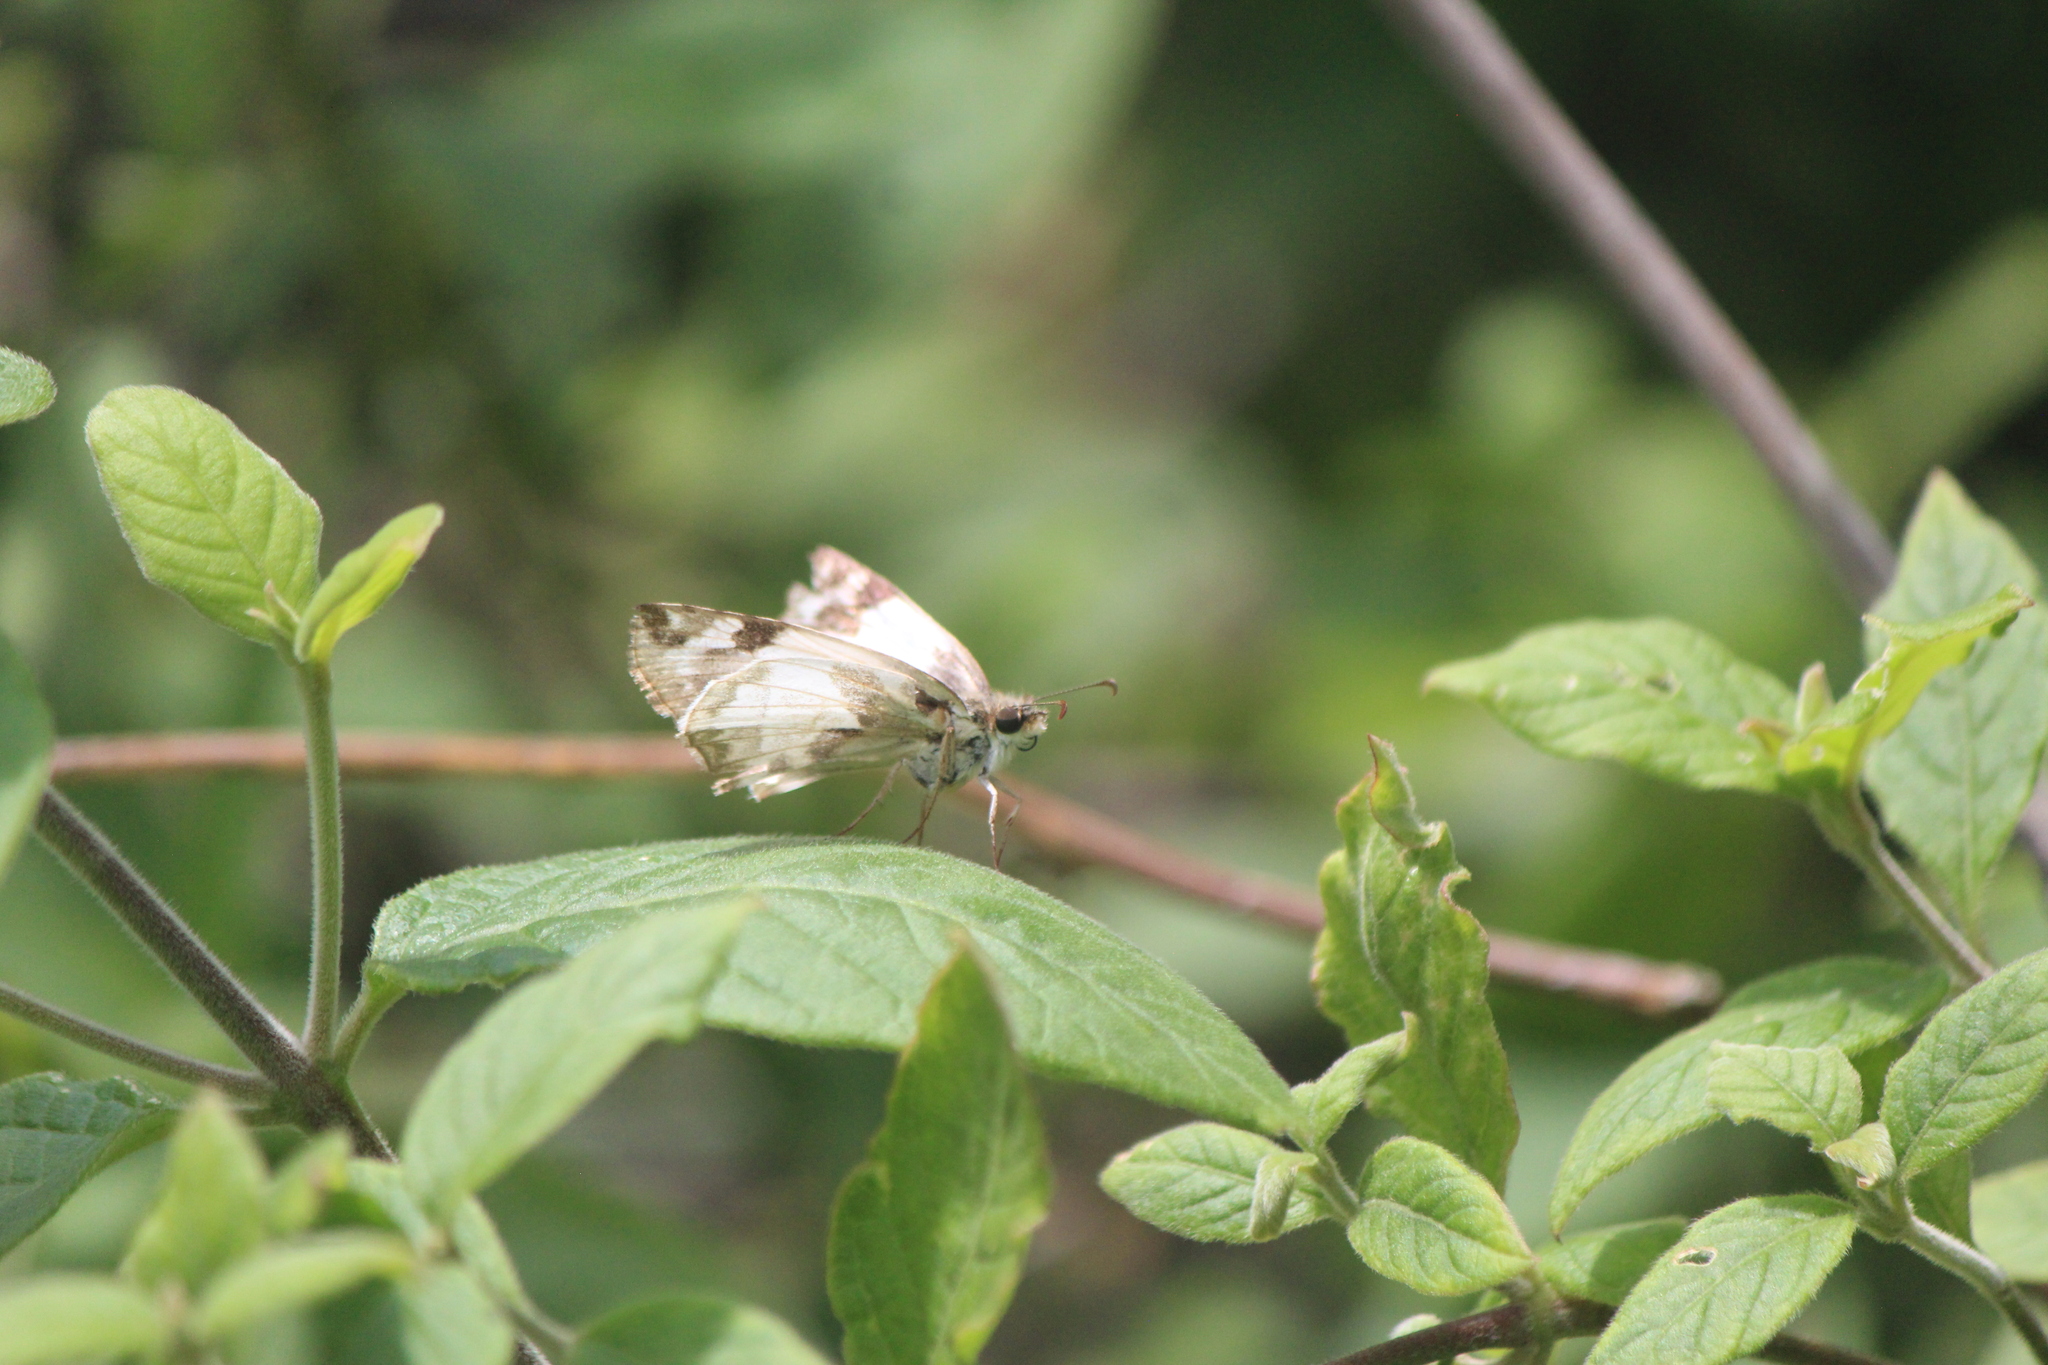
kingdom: Animalia
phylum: Arthropoda
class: Insecta
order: Lepidoptera
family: Hesperiidae
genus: Heliopetes
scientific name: Heliopetes laviana
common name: Laviana white-skipper
